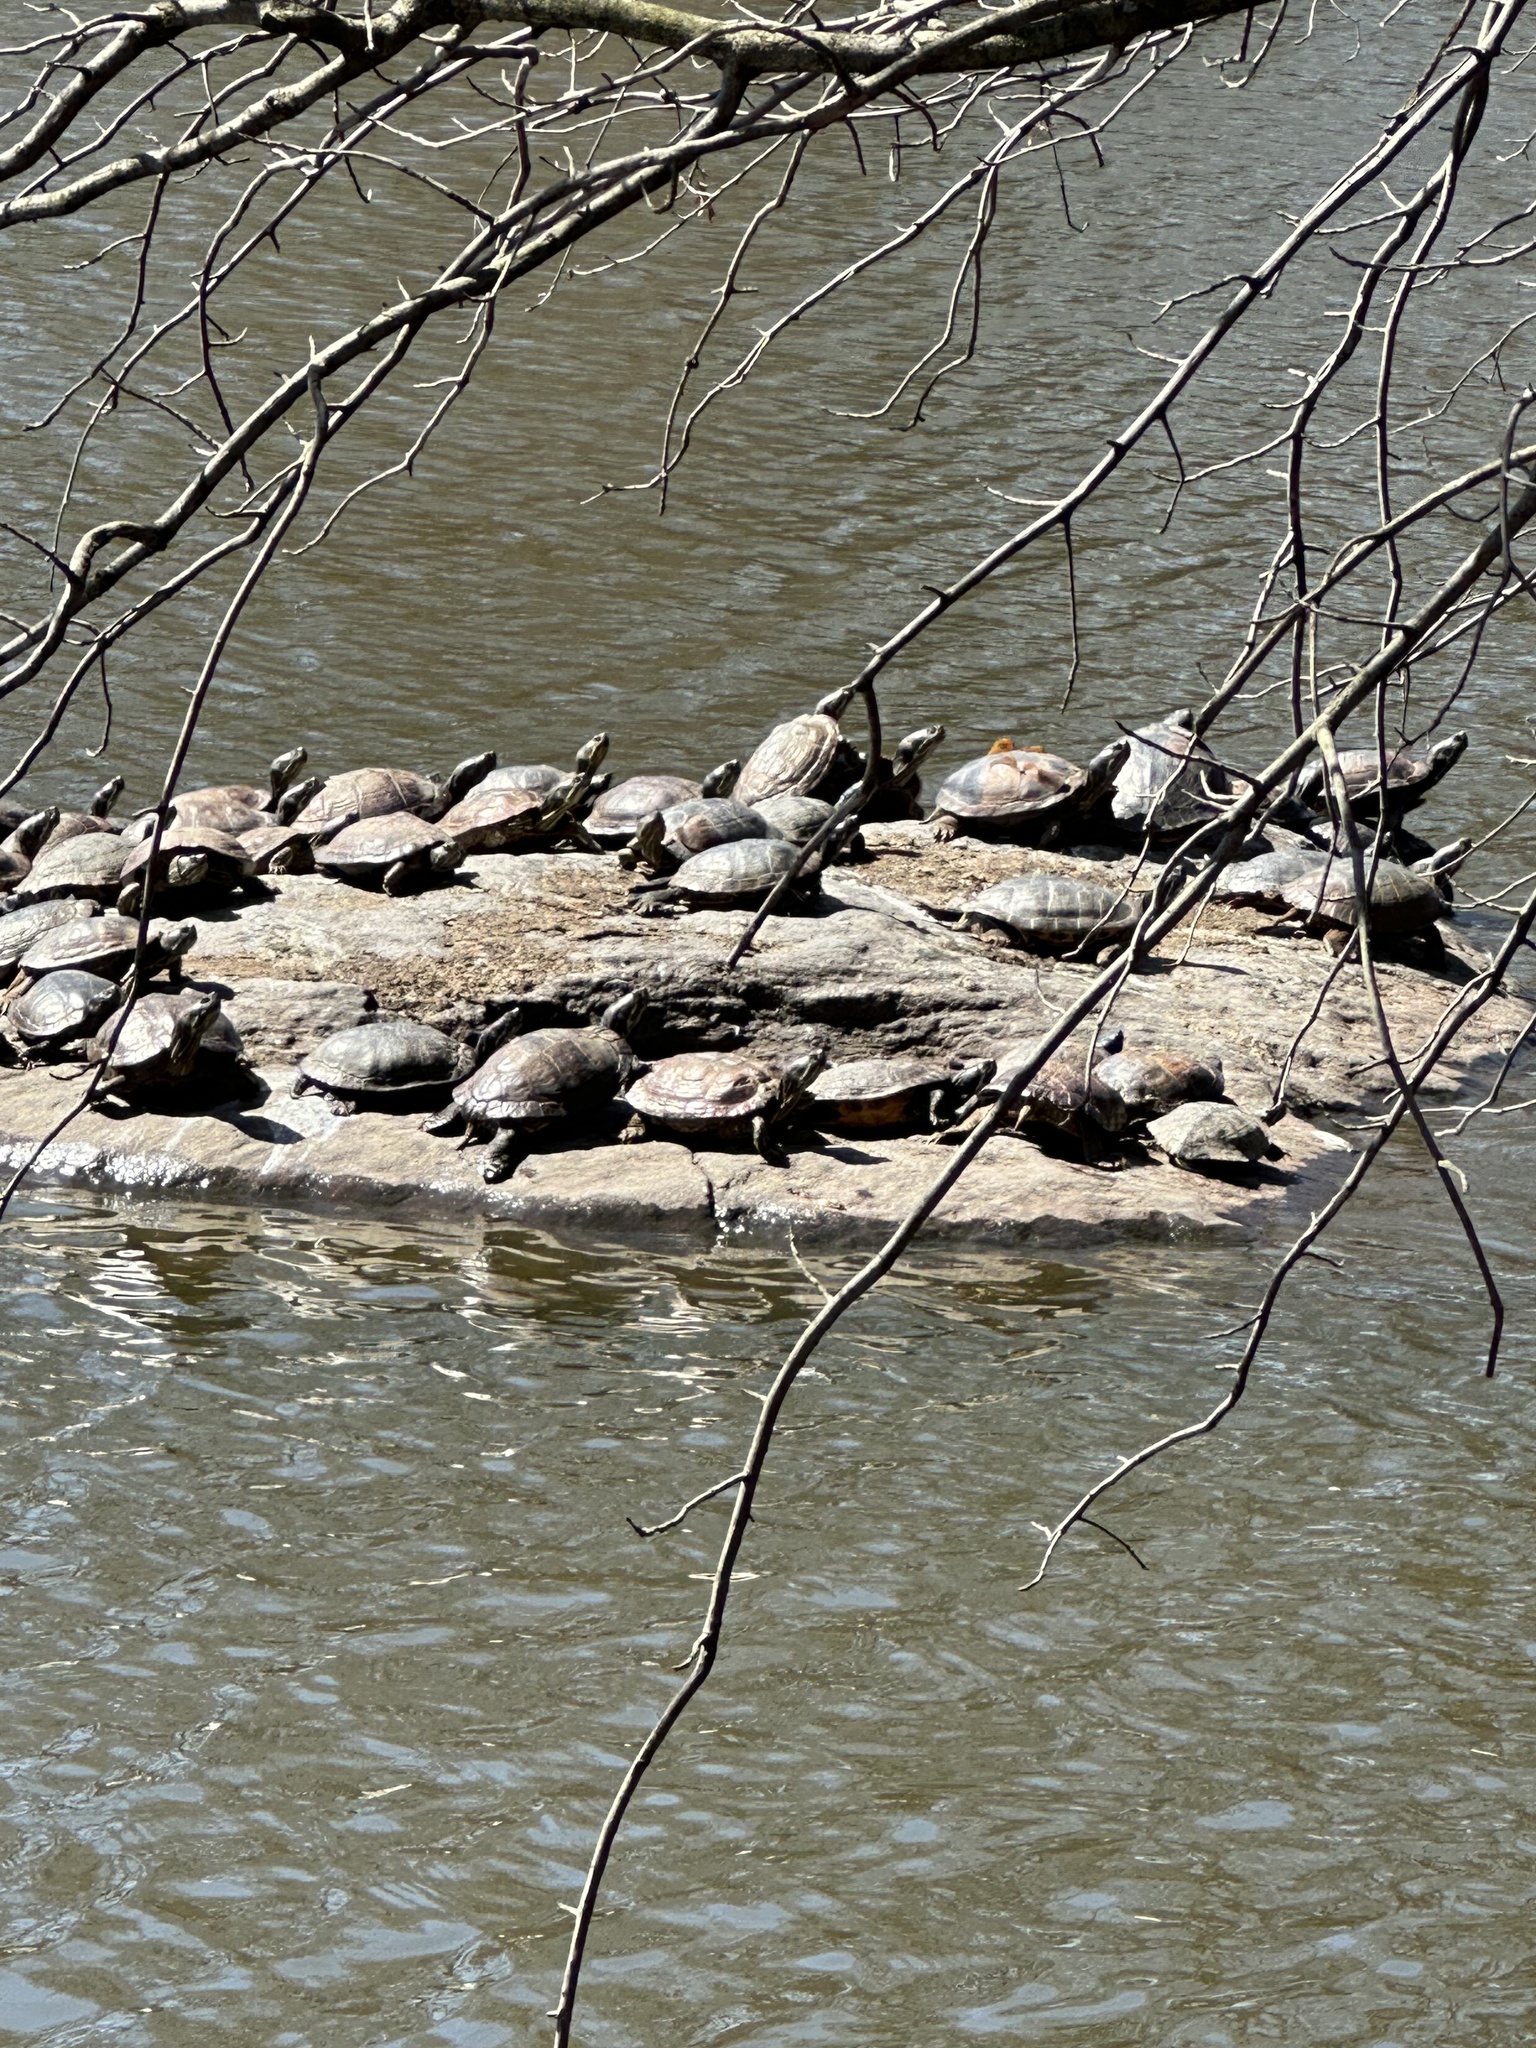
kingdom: Animalia
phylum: Chordata
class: Testudines
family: Emydidae
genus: Trachemys
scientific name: Trachemys scripta
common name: Slider
